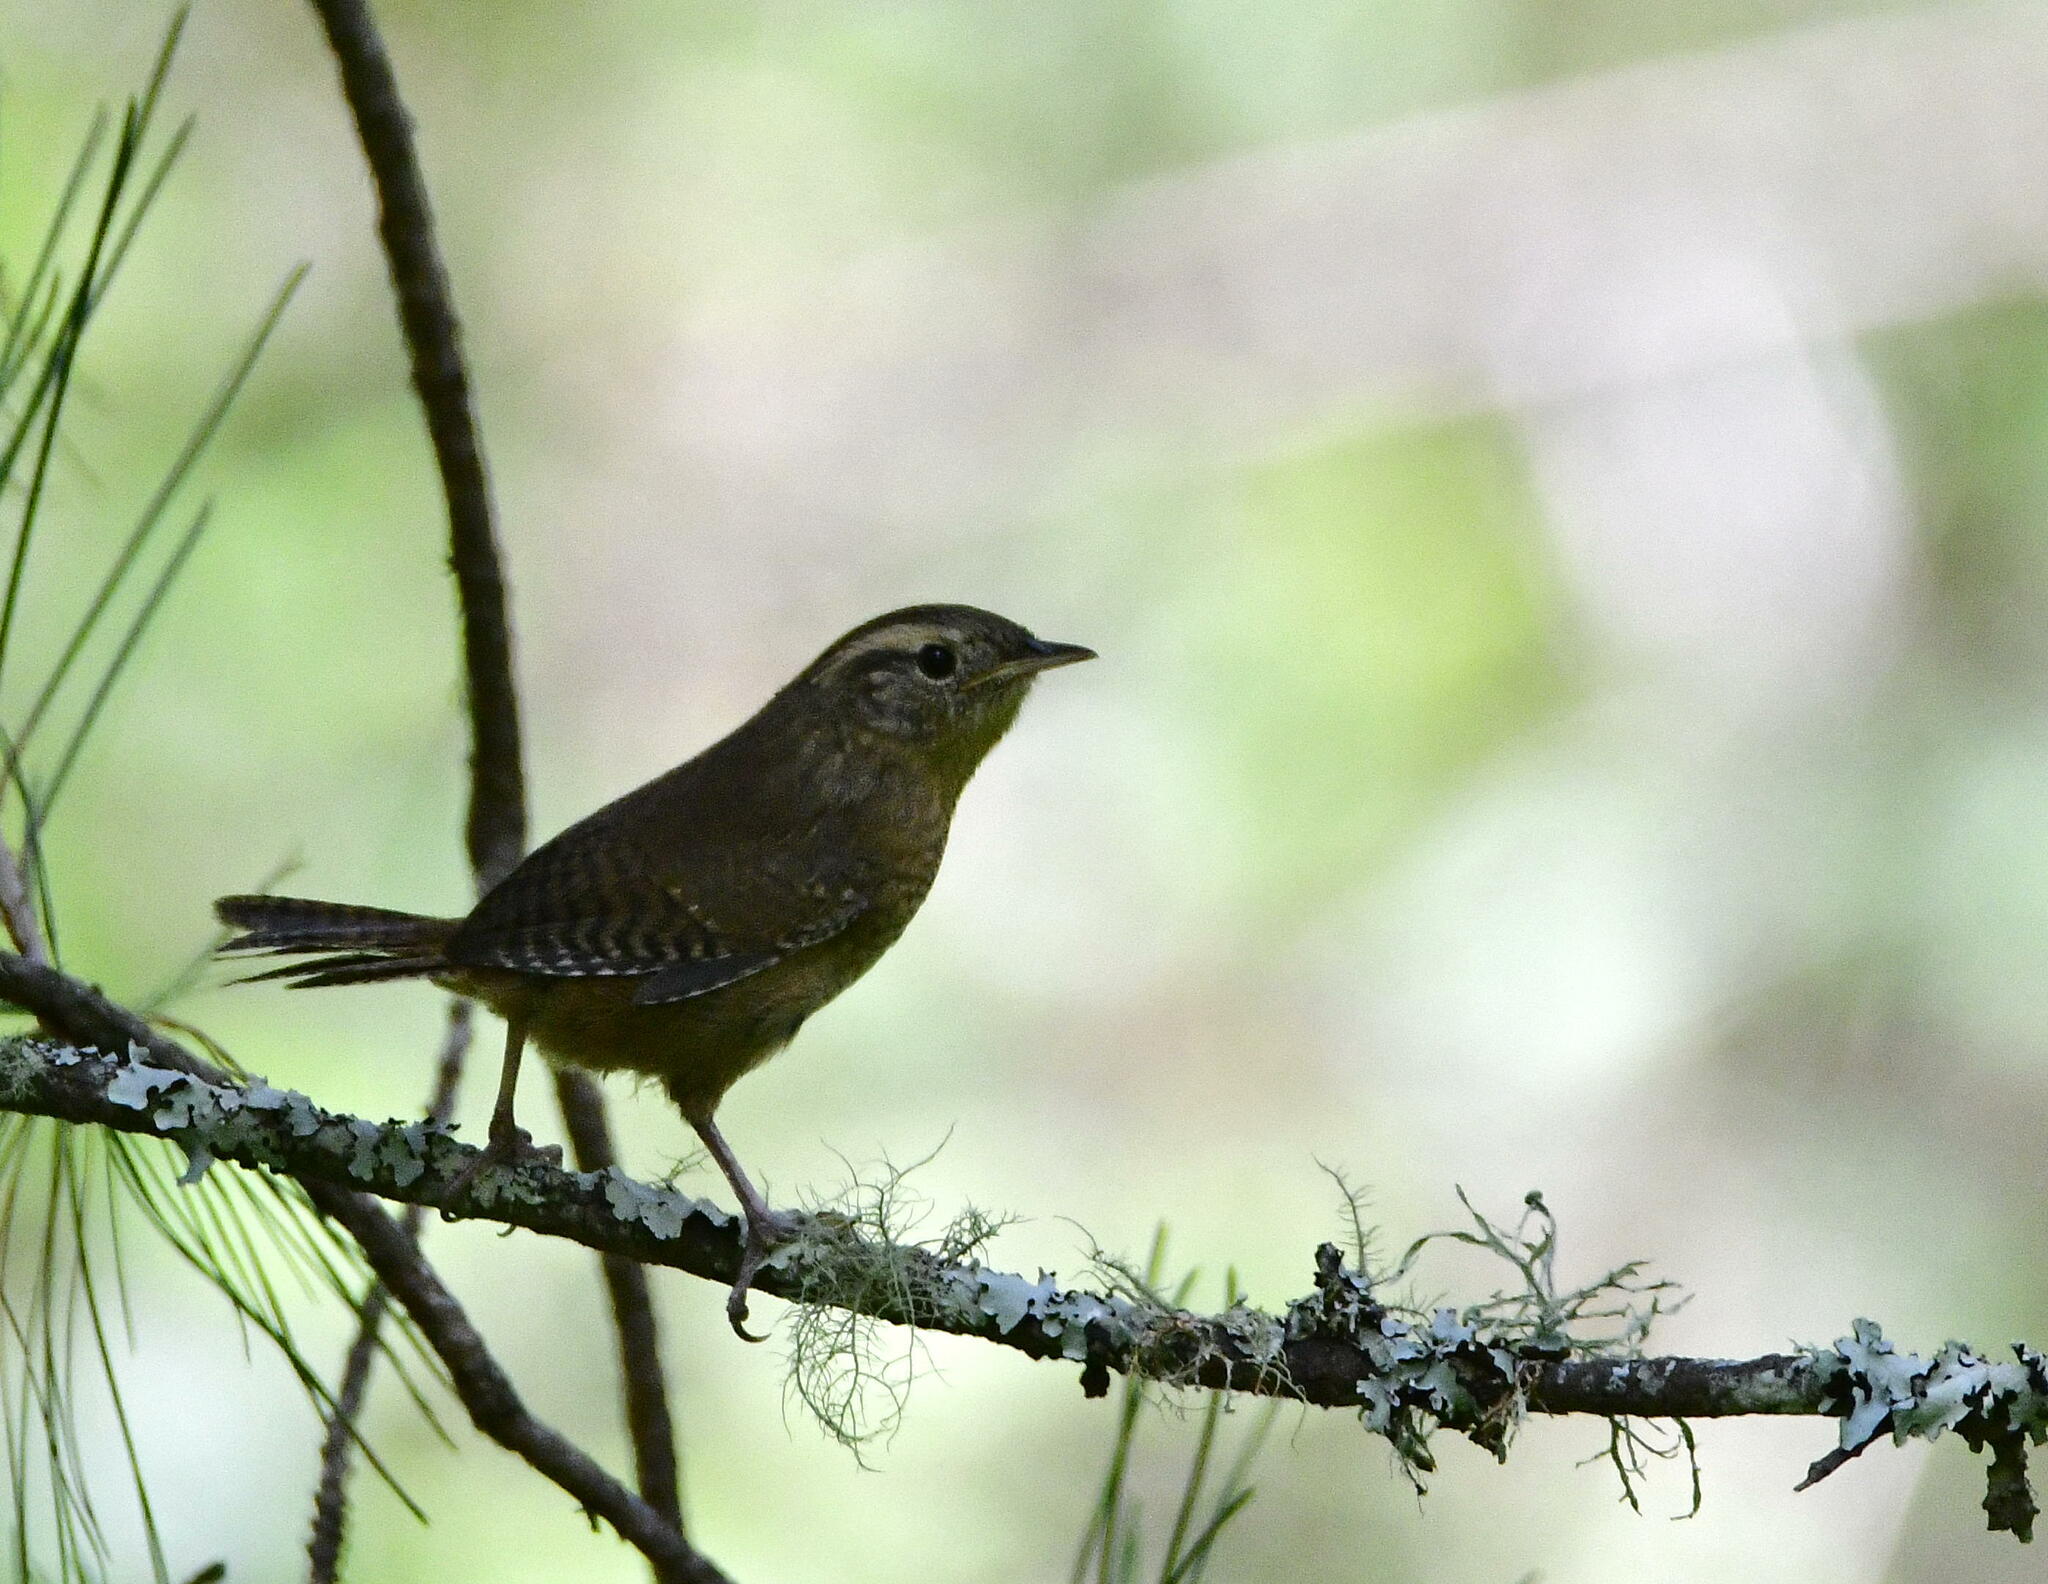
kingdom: Animalia
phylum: Chordata
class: Aves
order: Passeriformes
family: Troglodytidae
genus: Thryophilus
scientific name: Thryophilus sinaloa
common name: Sinaloa wren
